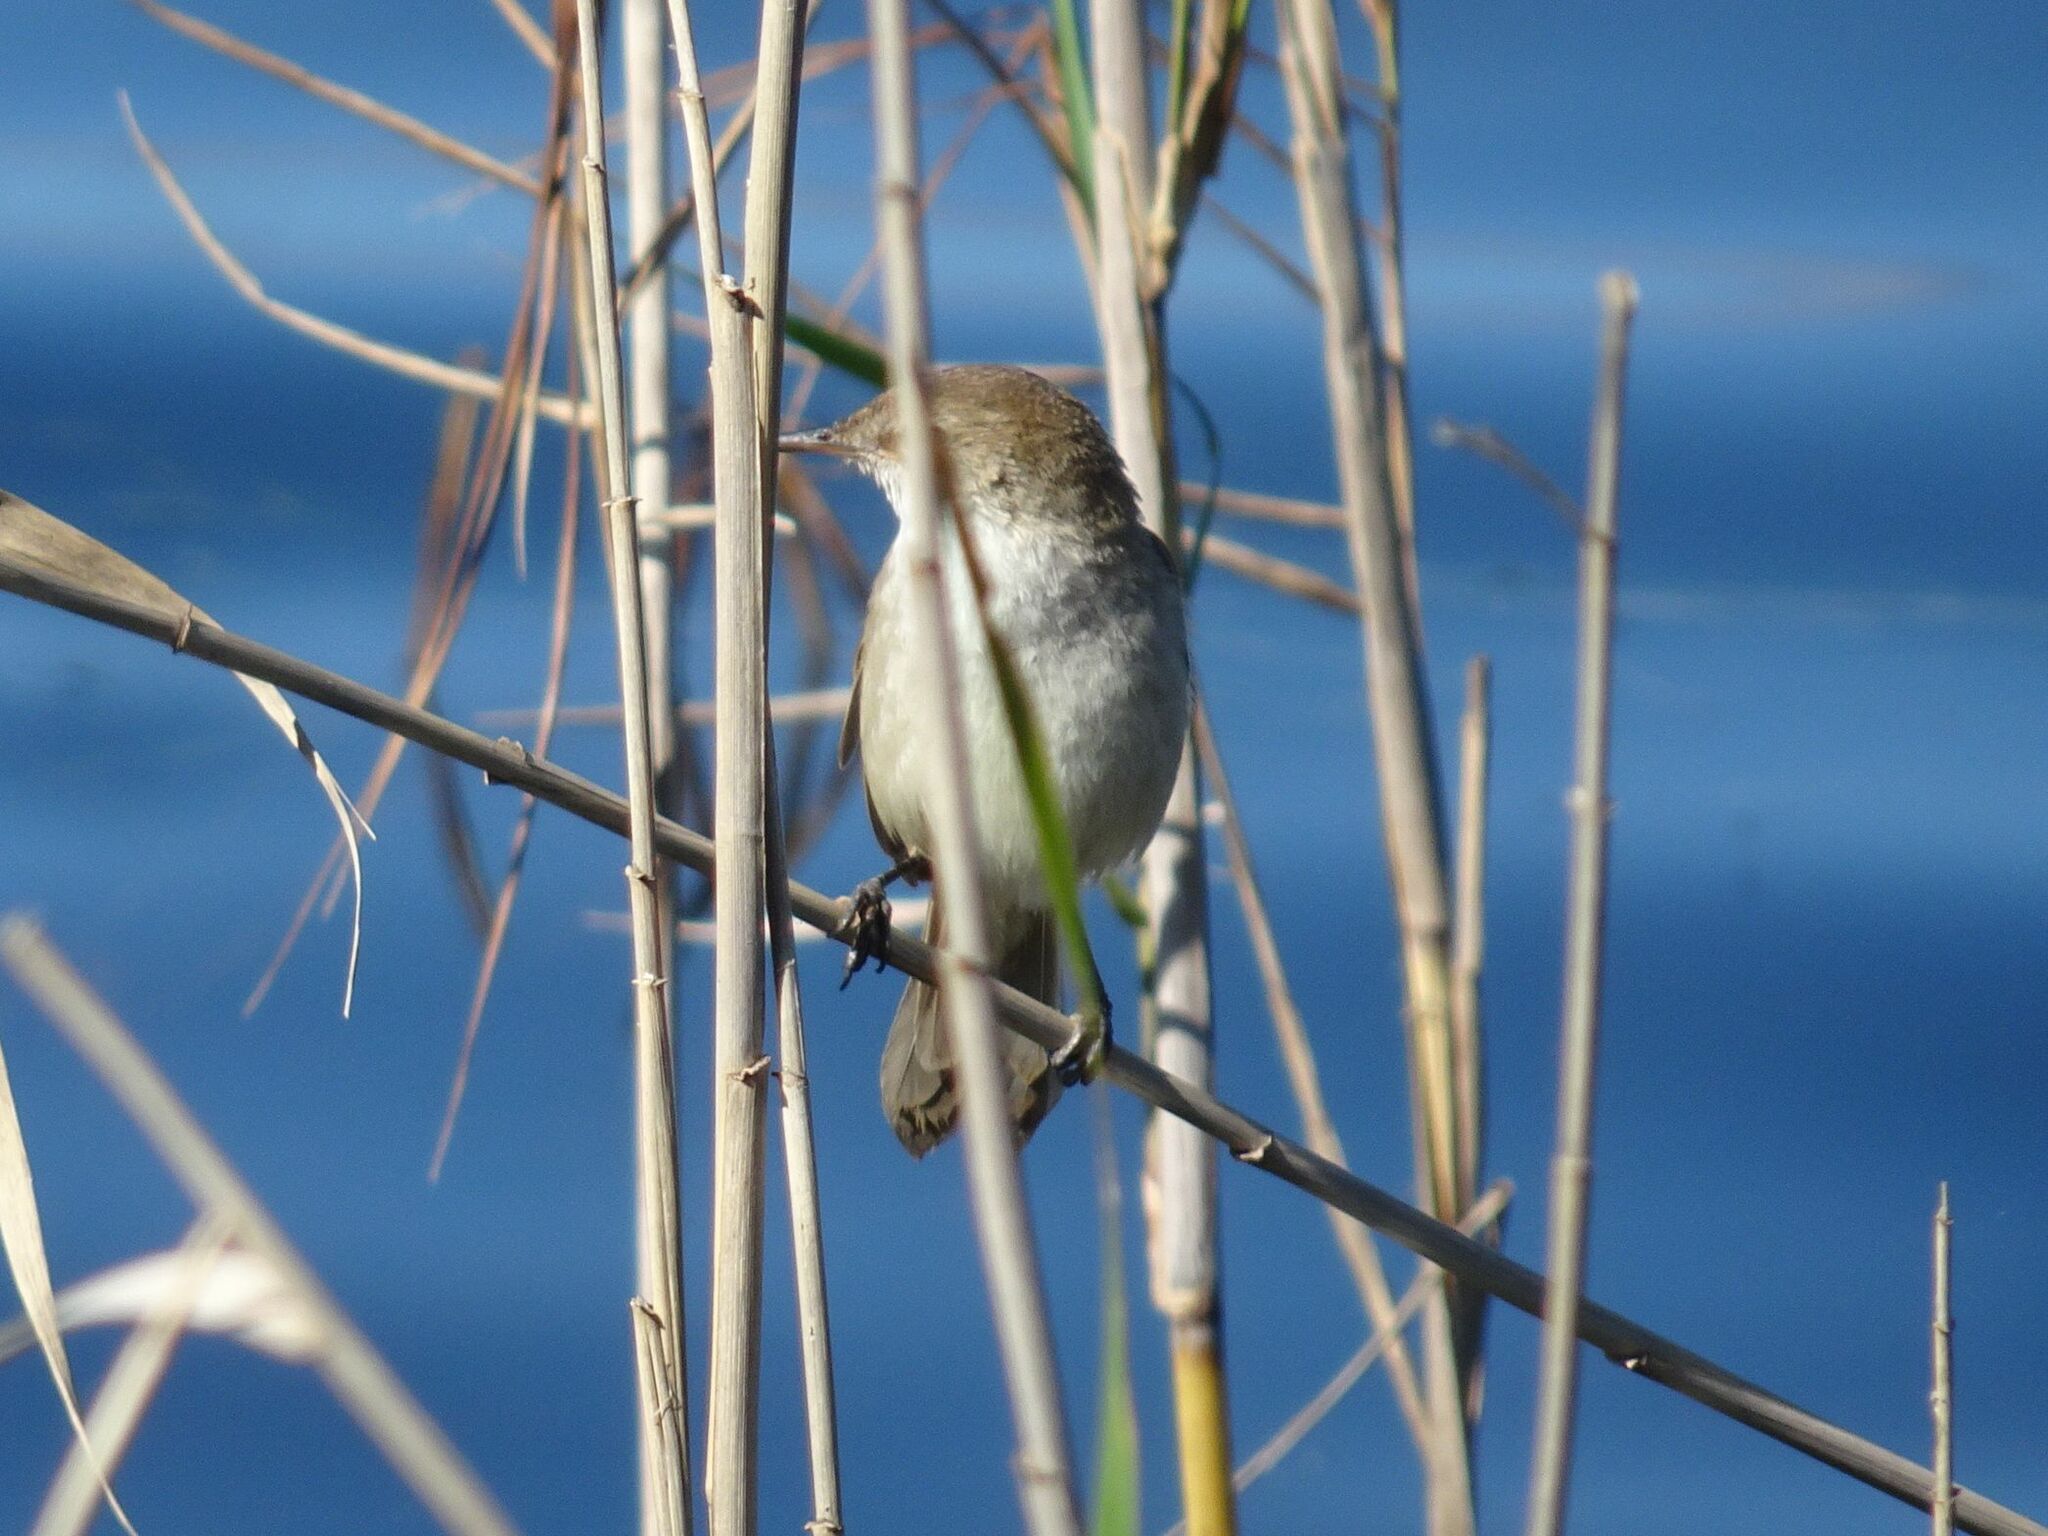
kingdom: Animalia
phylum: Chordata
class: Aves
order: Passeriformes
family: Acrocephalidae
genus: Acrocephalus
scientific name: Acrocephalus gracilirostris
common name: Lesser swamp warbler
